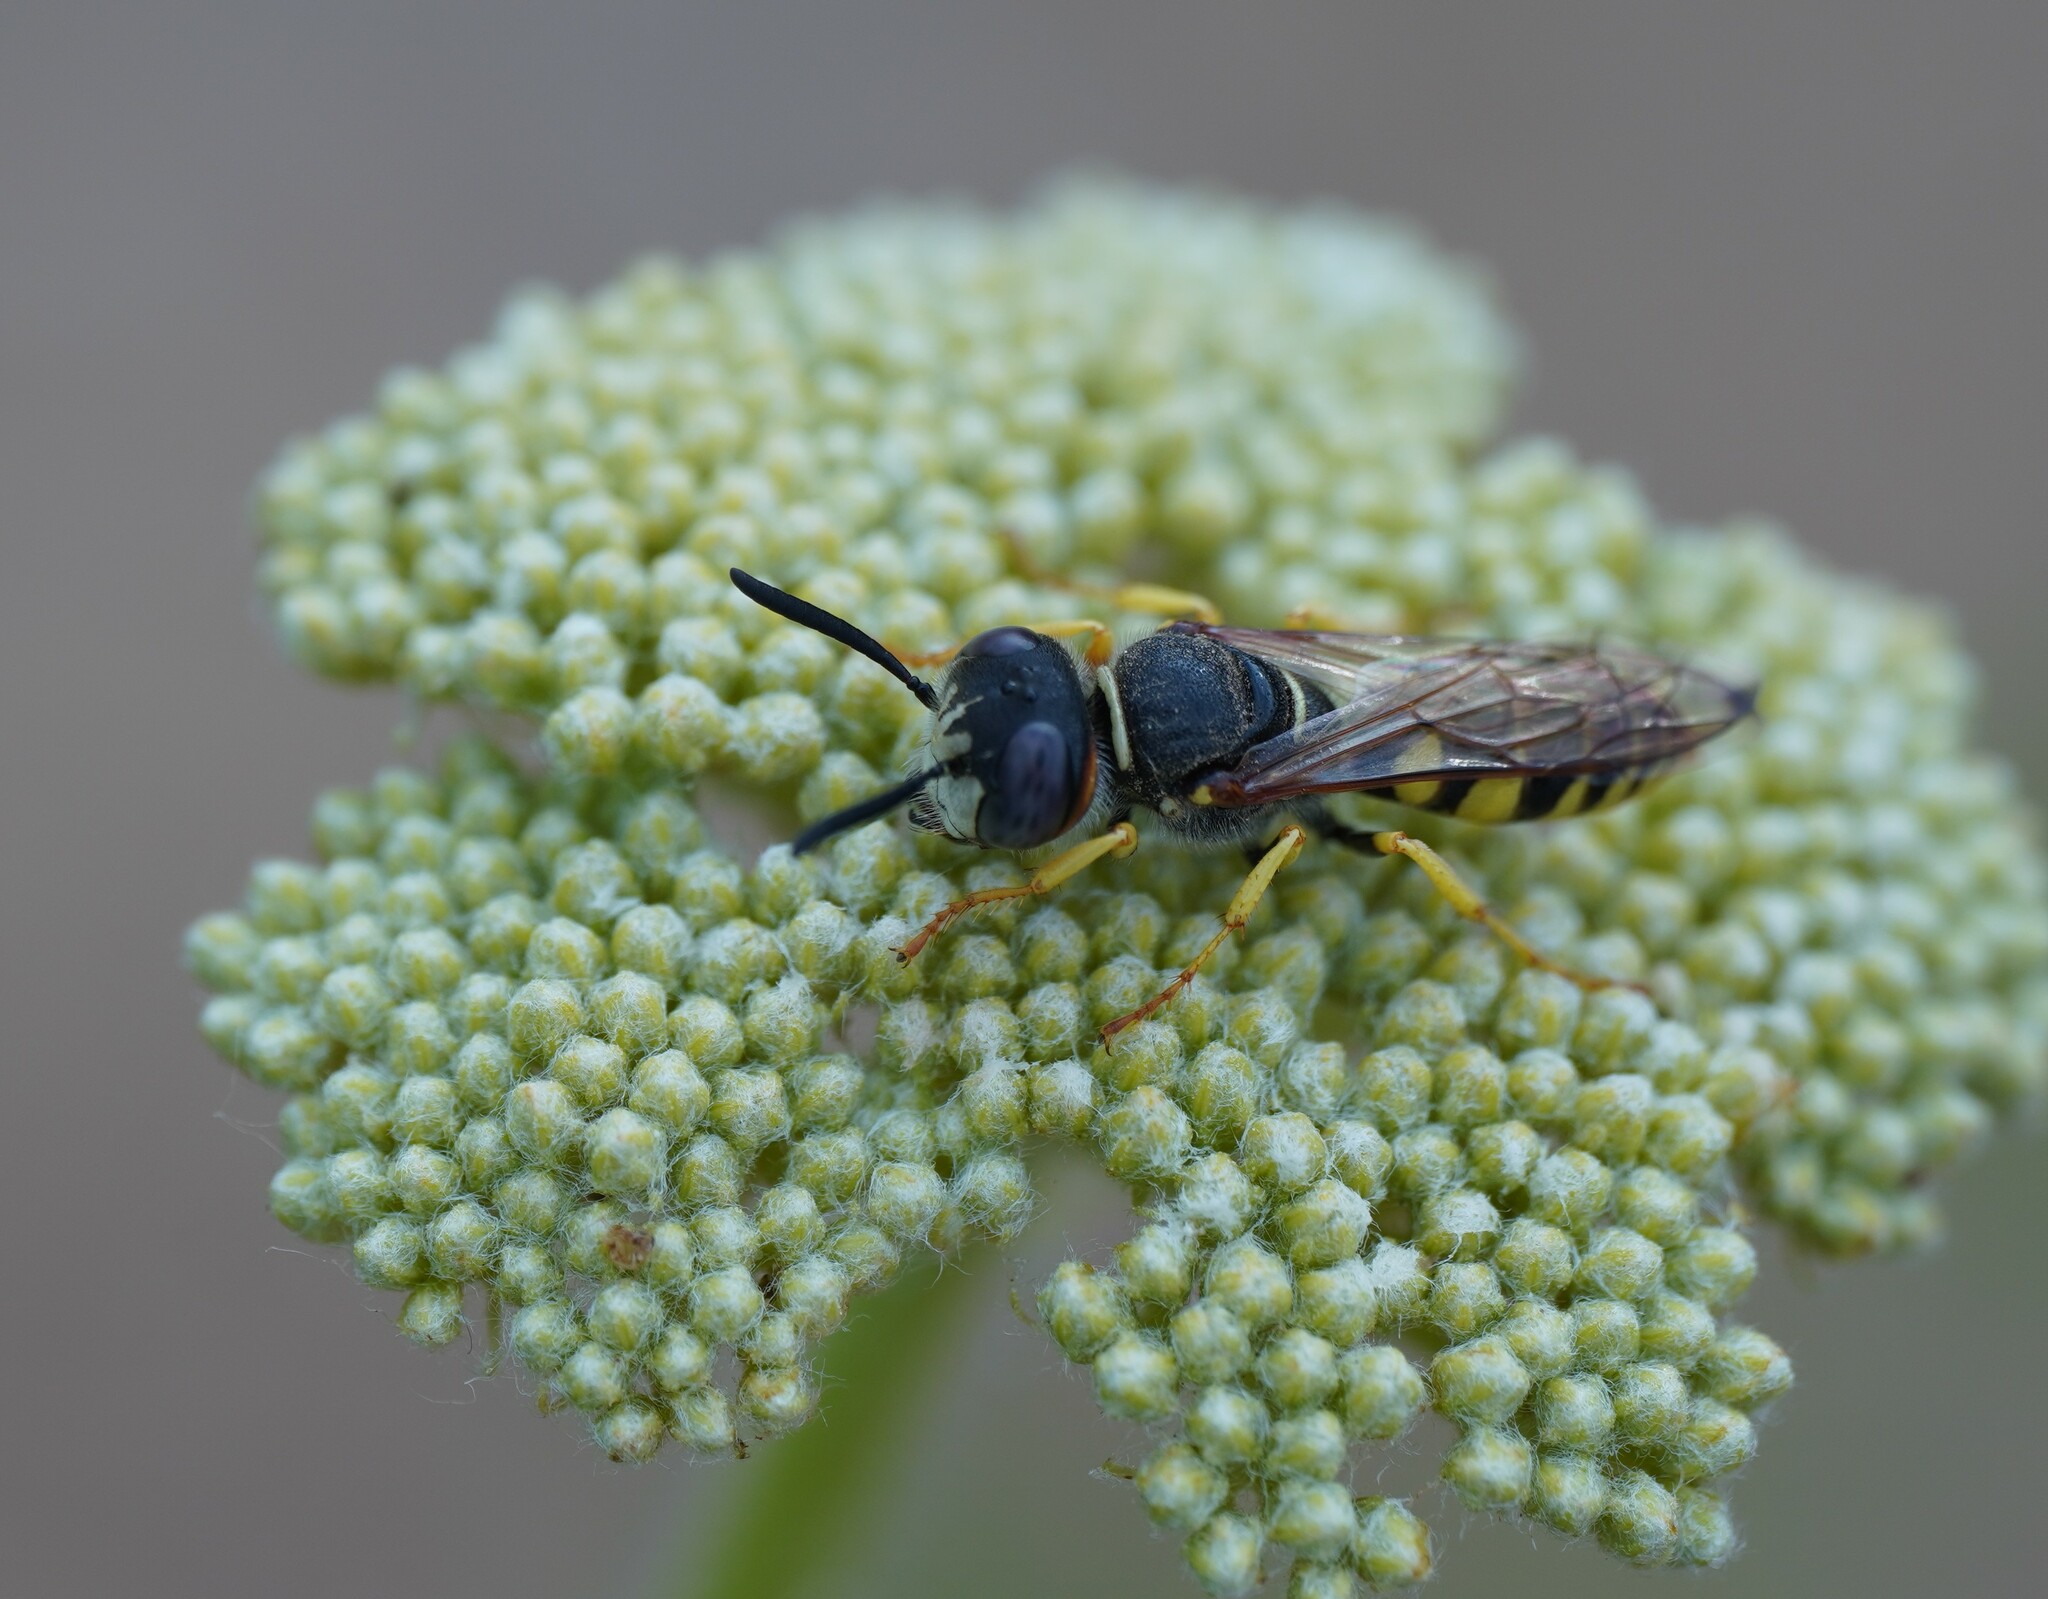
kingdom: Animalia
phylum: Arthropoda
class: Insecta
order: Hymenoptera
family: Crabronidae
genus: Philanthus
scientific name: Philanthus triangulum
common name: Bee wolf
